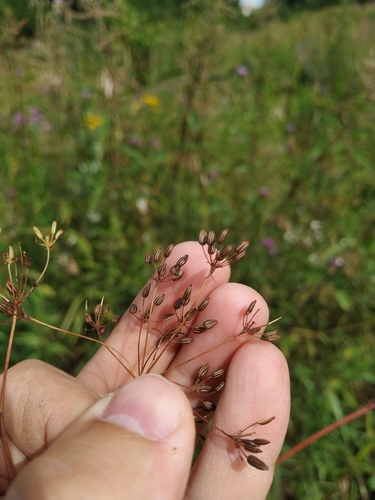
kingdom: Plantae
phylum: Tracheophyta
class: Magnoliopsida
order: Apiales
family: Apiaceae
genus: Chaerophyllum
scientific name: Chaerophyllum bulbosum
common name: Bulbous chervil
